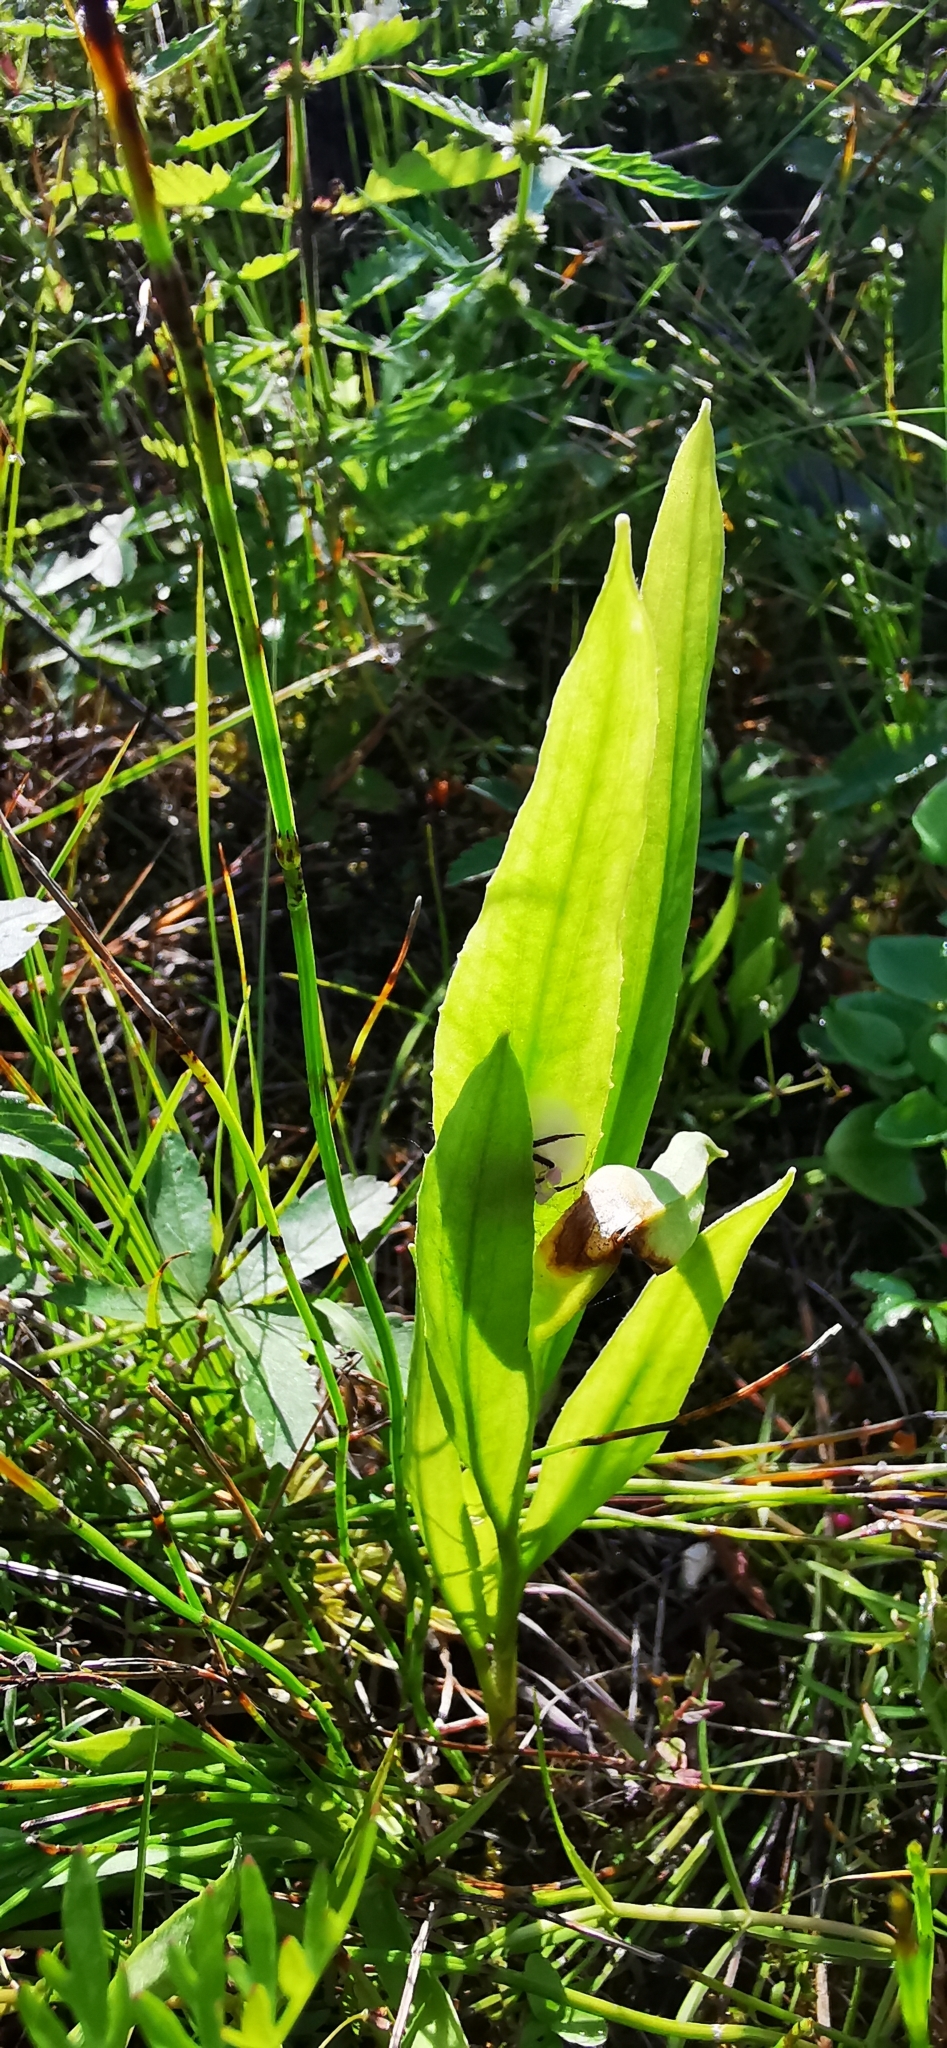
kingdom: Plantae
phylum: Tracheophyta
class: Magnoliopsida
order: Ranunculales
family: Ranunculaceae
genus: Ranunculus
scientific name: Ranunculus lingua
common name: Greater spearwort
